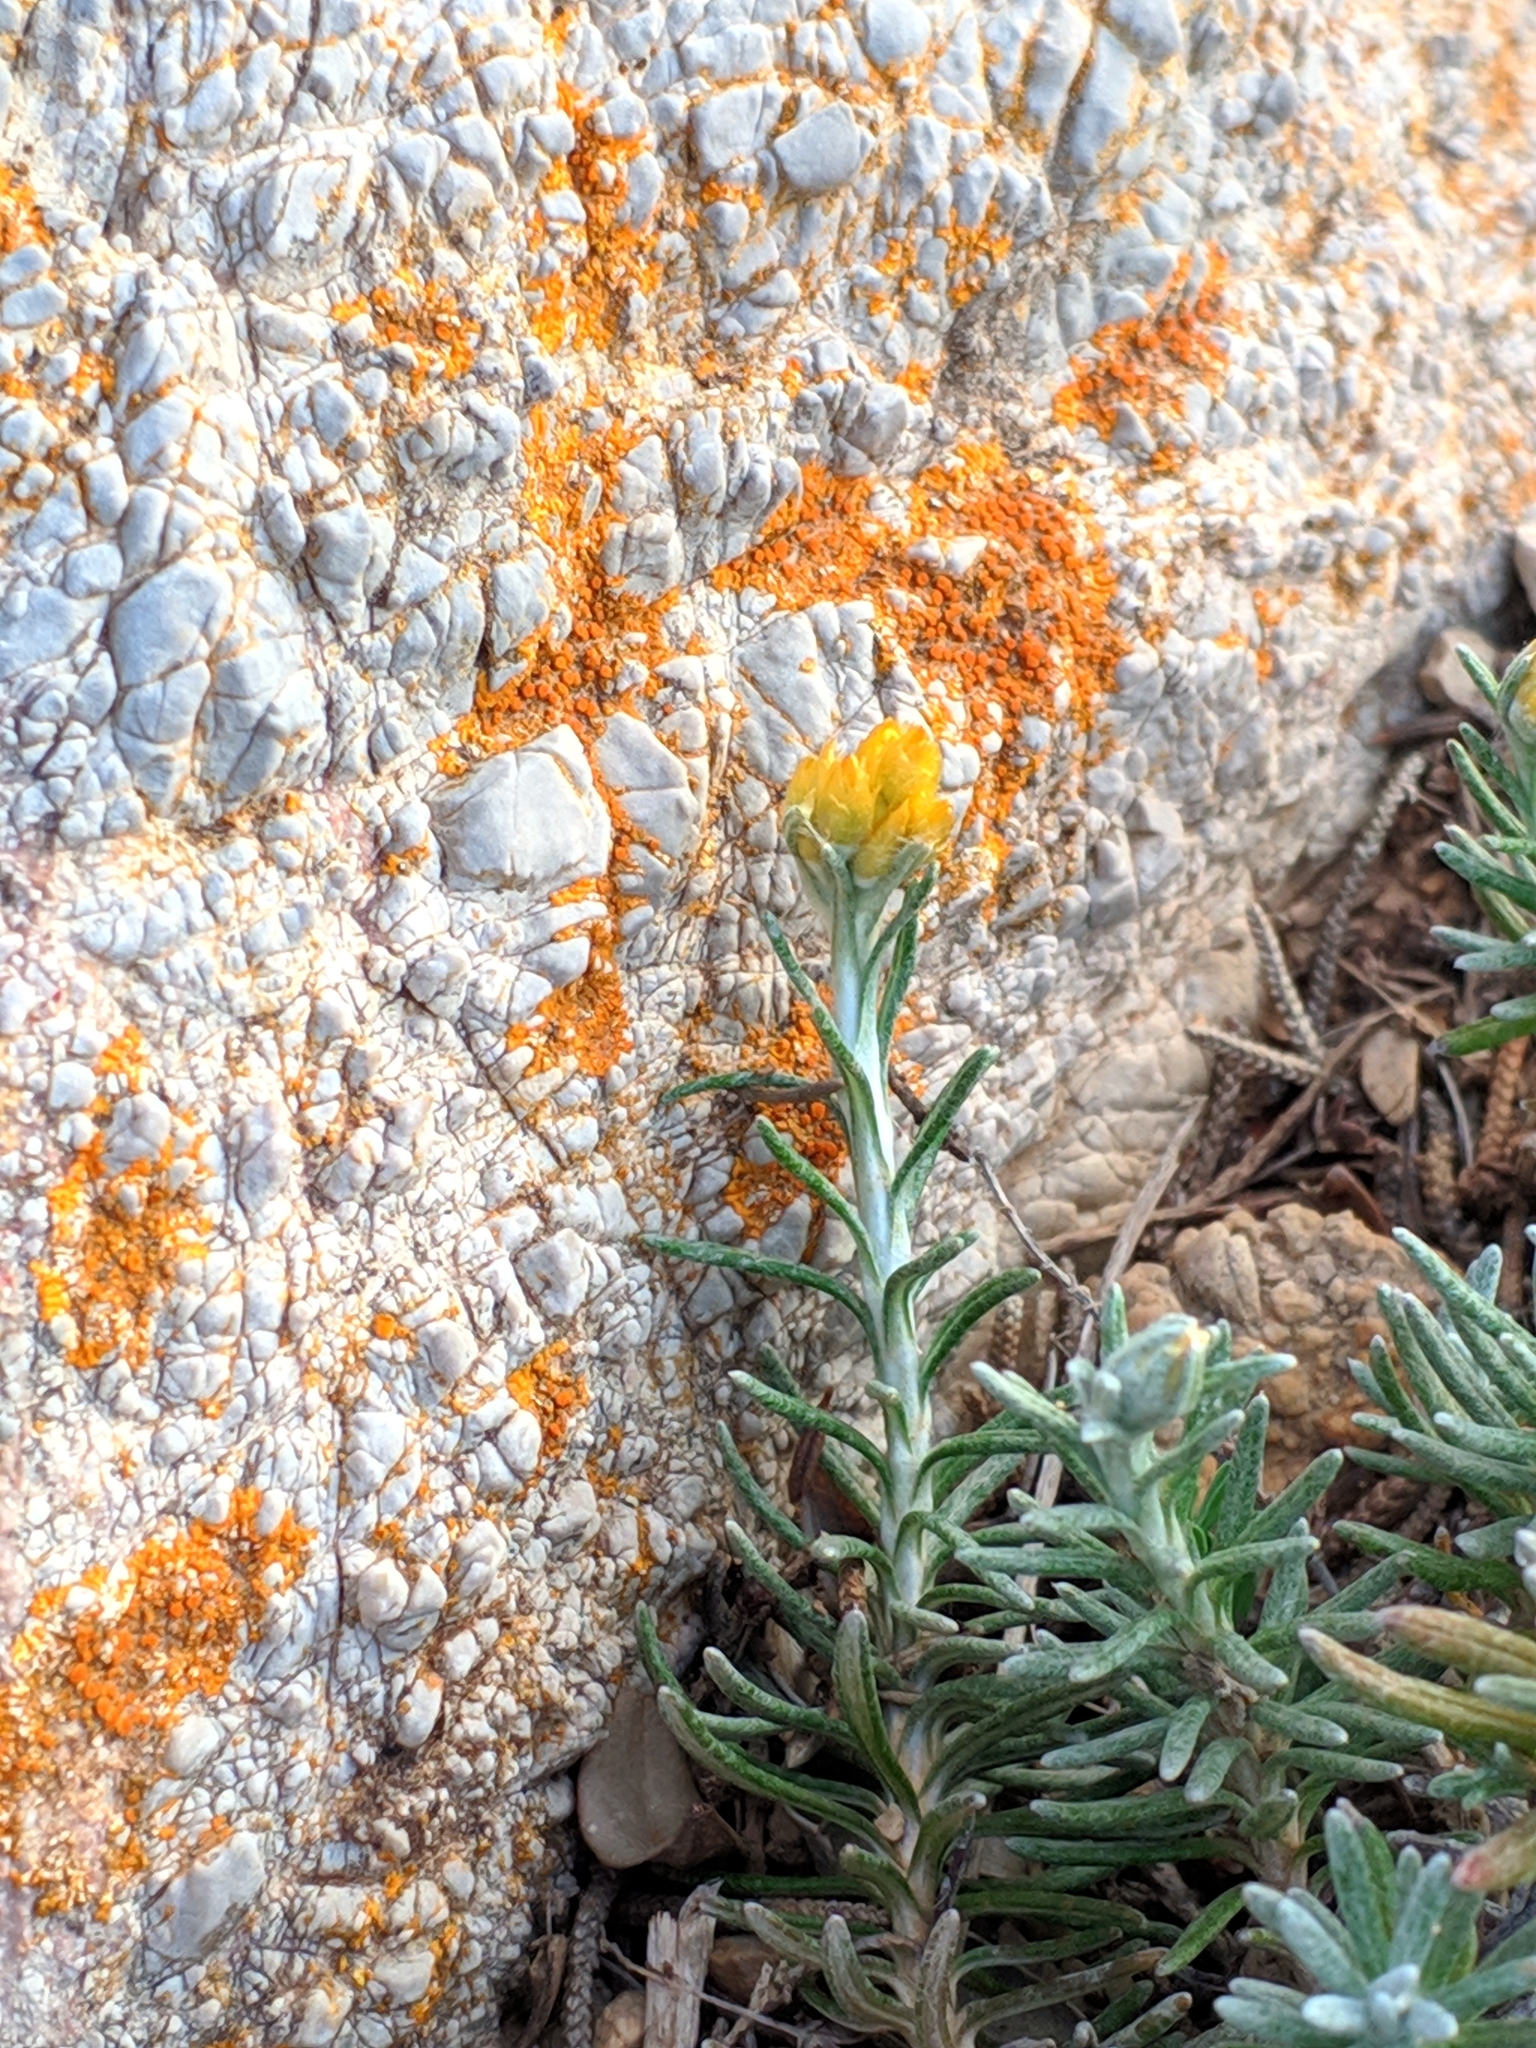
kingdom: Plantae
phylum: Tracheophyta
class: Magnoliopsida
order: Asterales
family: Asteraceae
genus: Helichrysum
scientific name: Helichrysum stoechas
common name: Goldilocks
